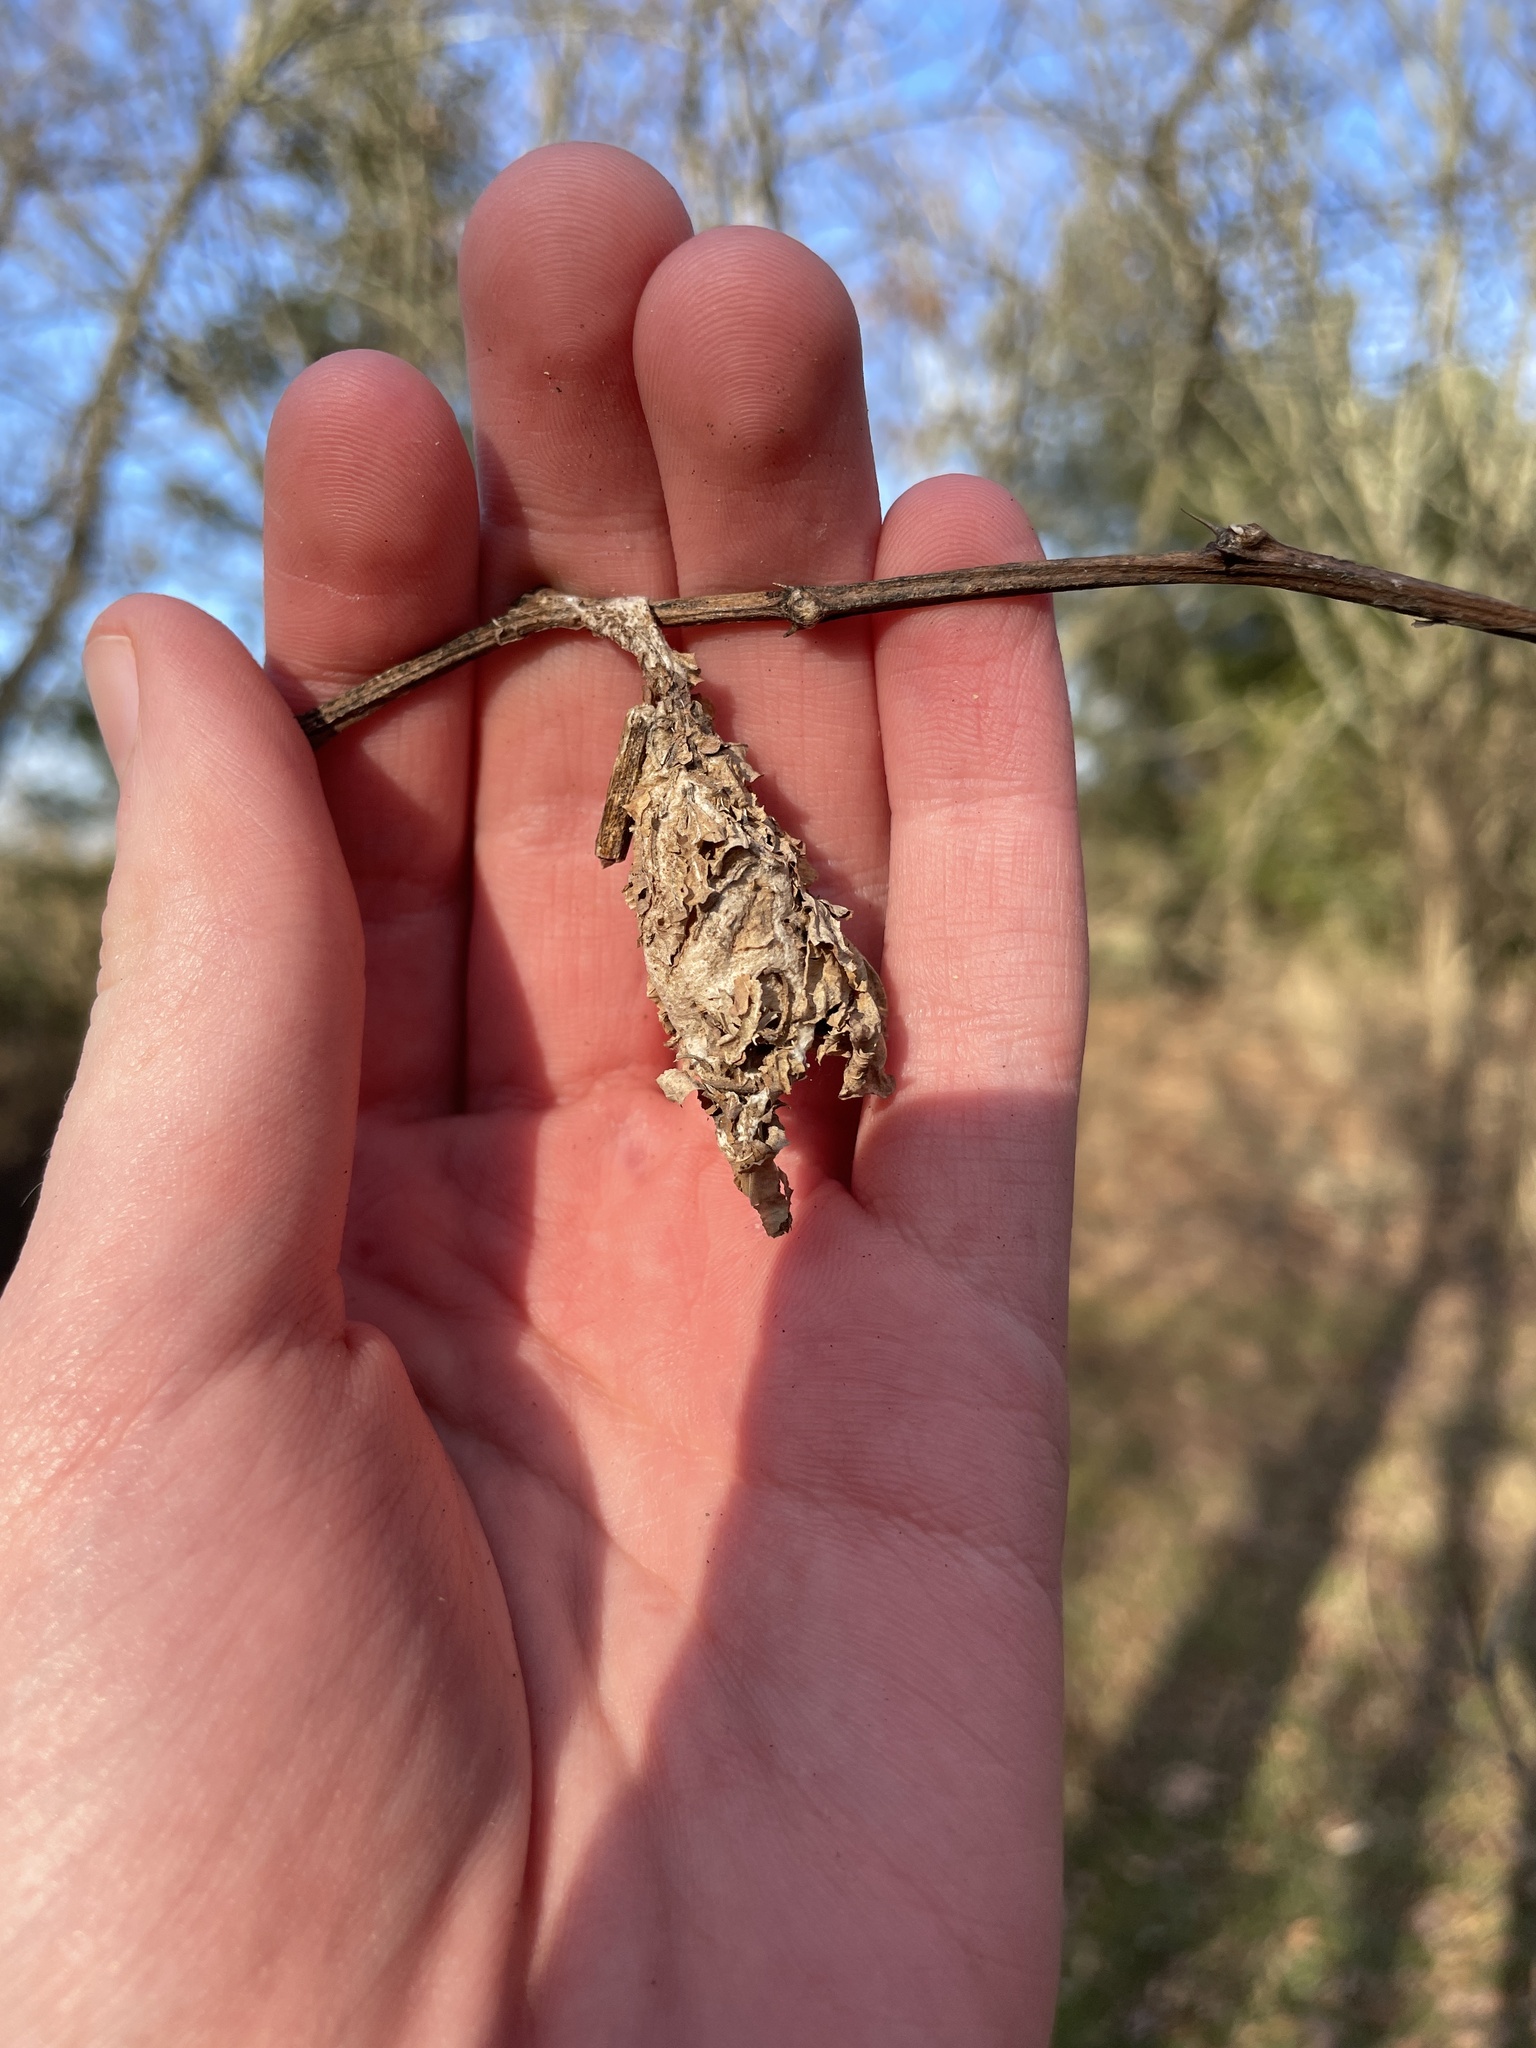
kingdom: Animalia
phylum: Arthropoda
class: Insecta
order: Lepidoptera
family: Psychidae
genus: Thyridopteryx
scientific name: Thyridopteryx ephemeraeformis
